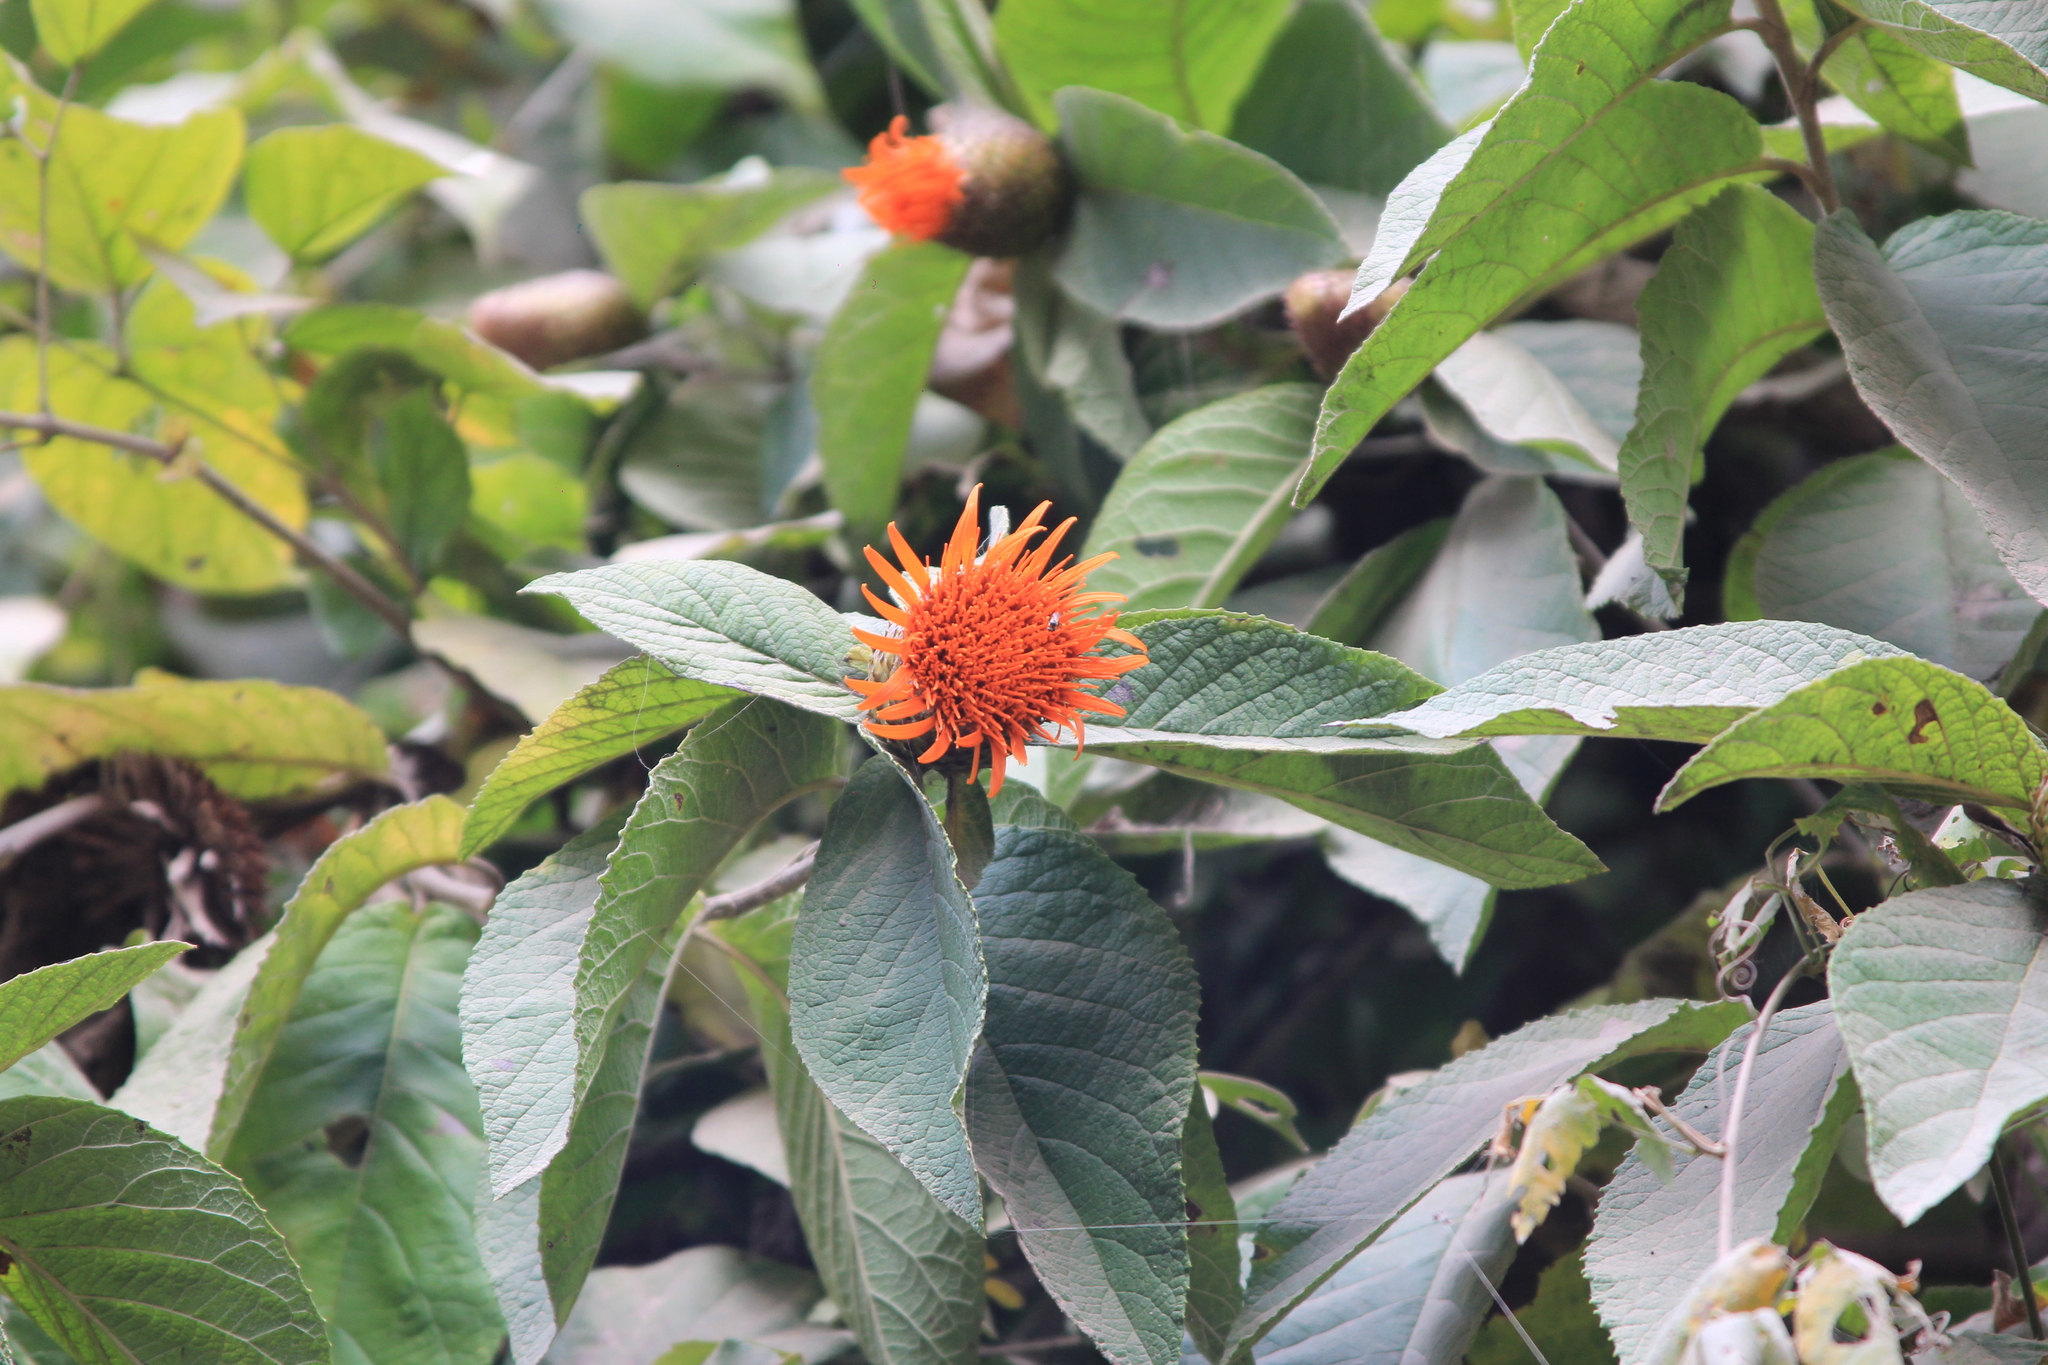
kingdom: Plantae
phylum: Tracheophyta
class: Magnoliopsida
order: Asterales
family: Asteraceae
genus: Cnicothamnus
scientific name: Cnicothamnus lorentzii
